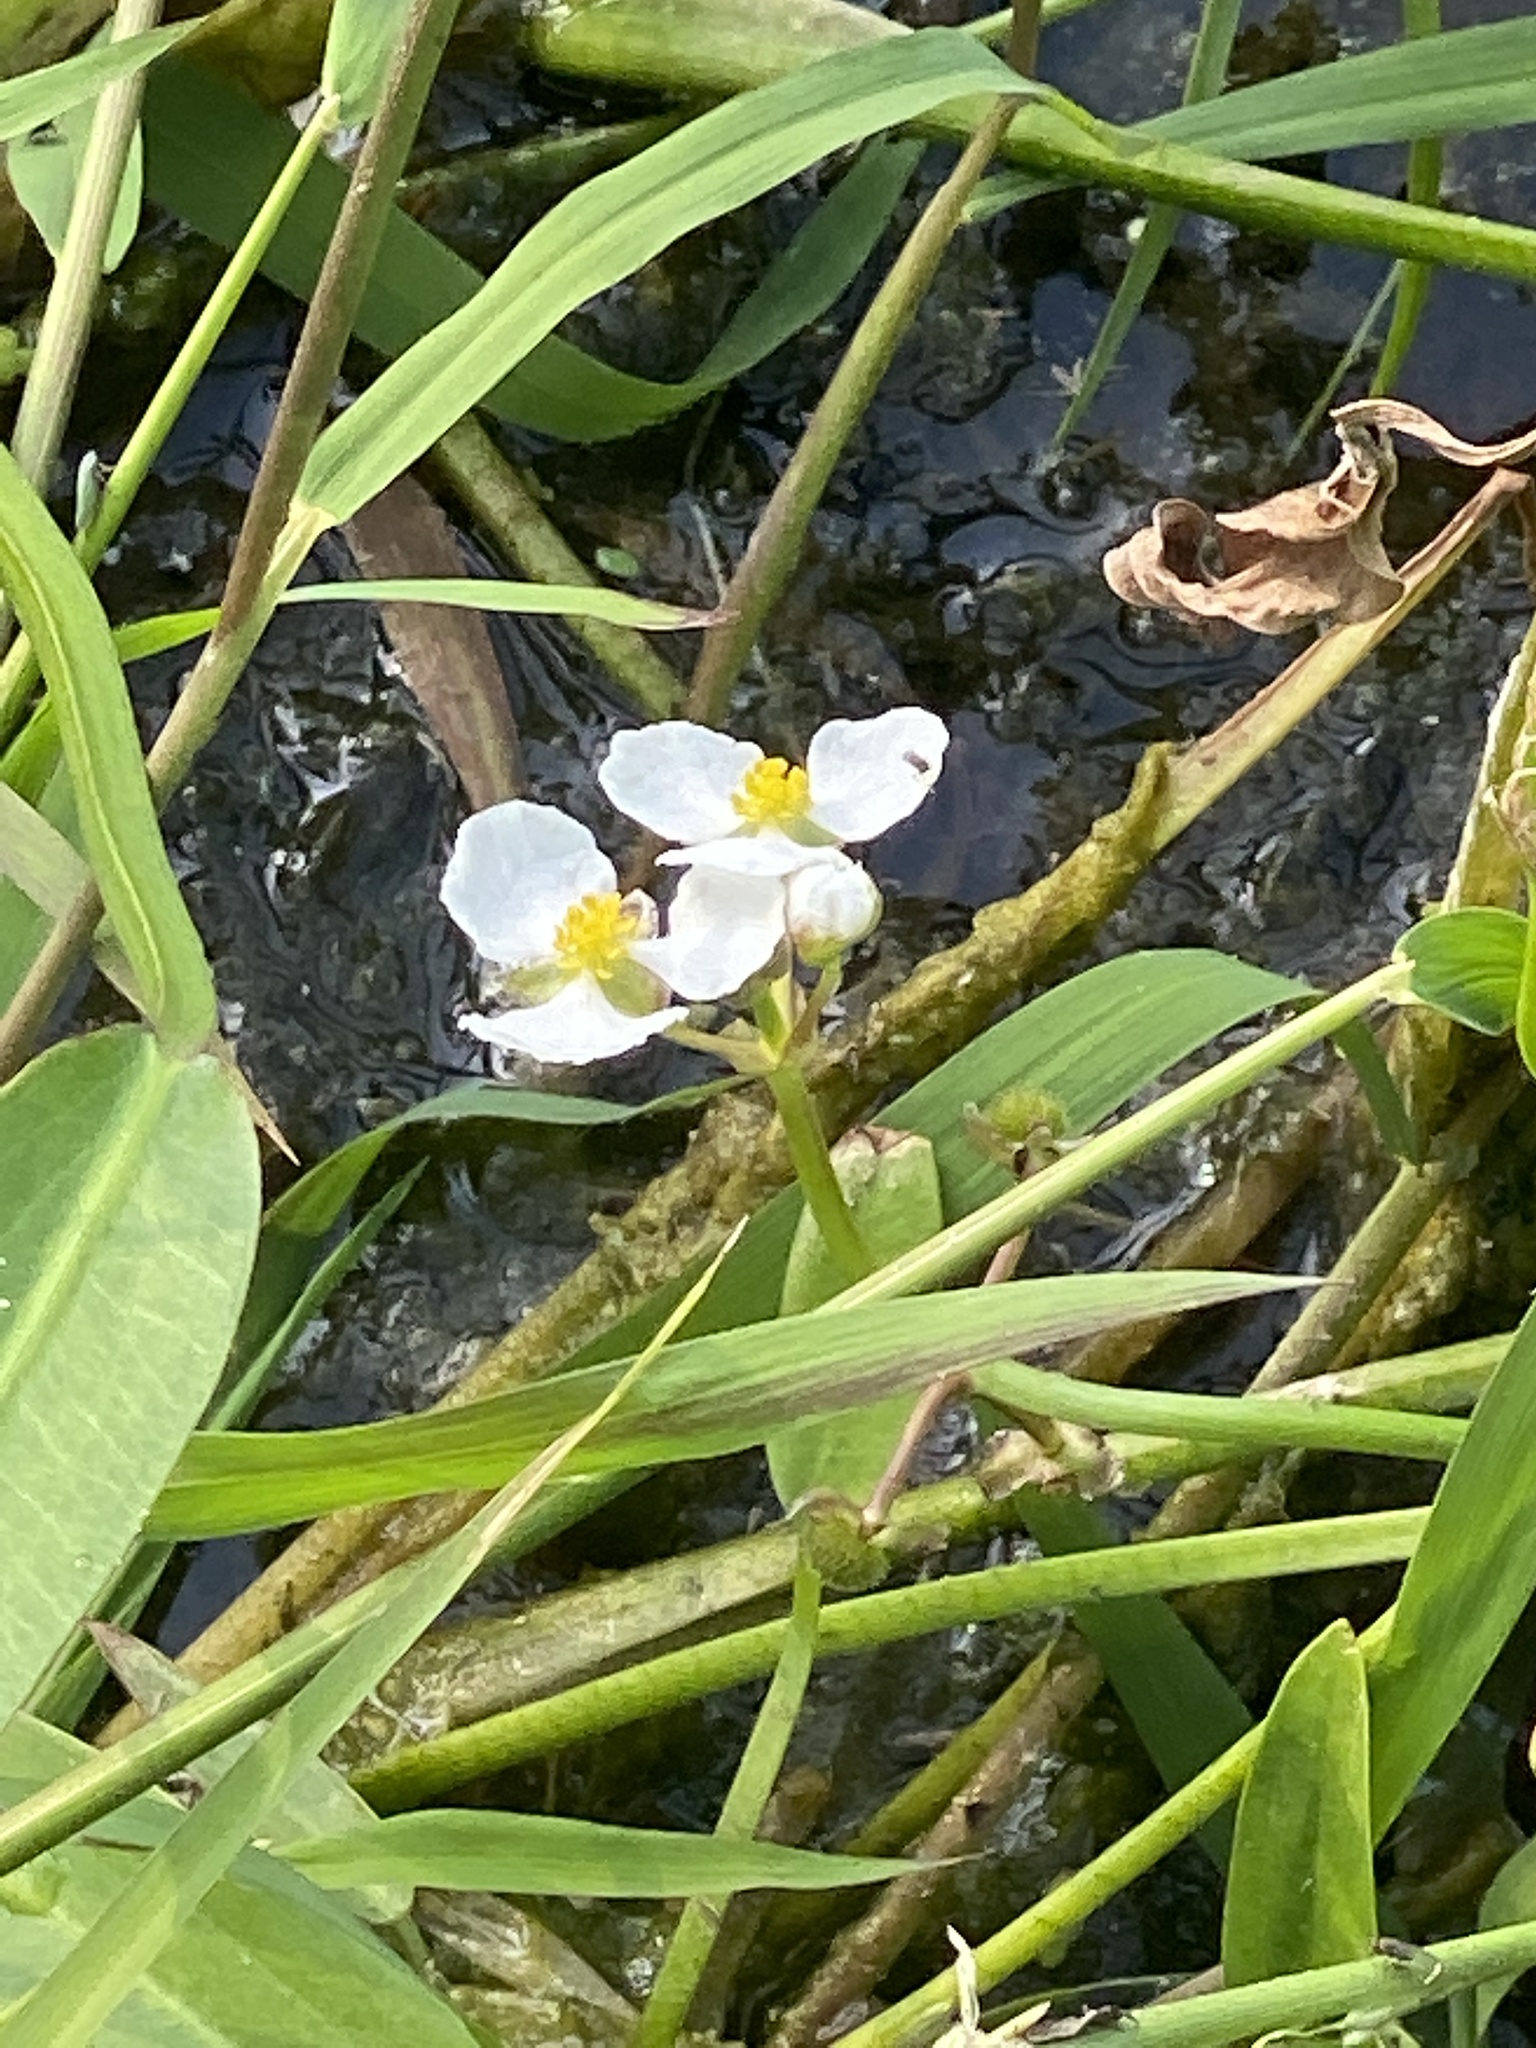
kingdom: Plantae
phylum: Tracheophyta
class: Liliopsida
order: Alismatales
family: Alismataceae
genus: Sagittaria
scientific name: Sagittaria platyphylla
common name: Broad-leaf arrowhead
